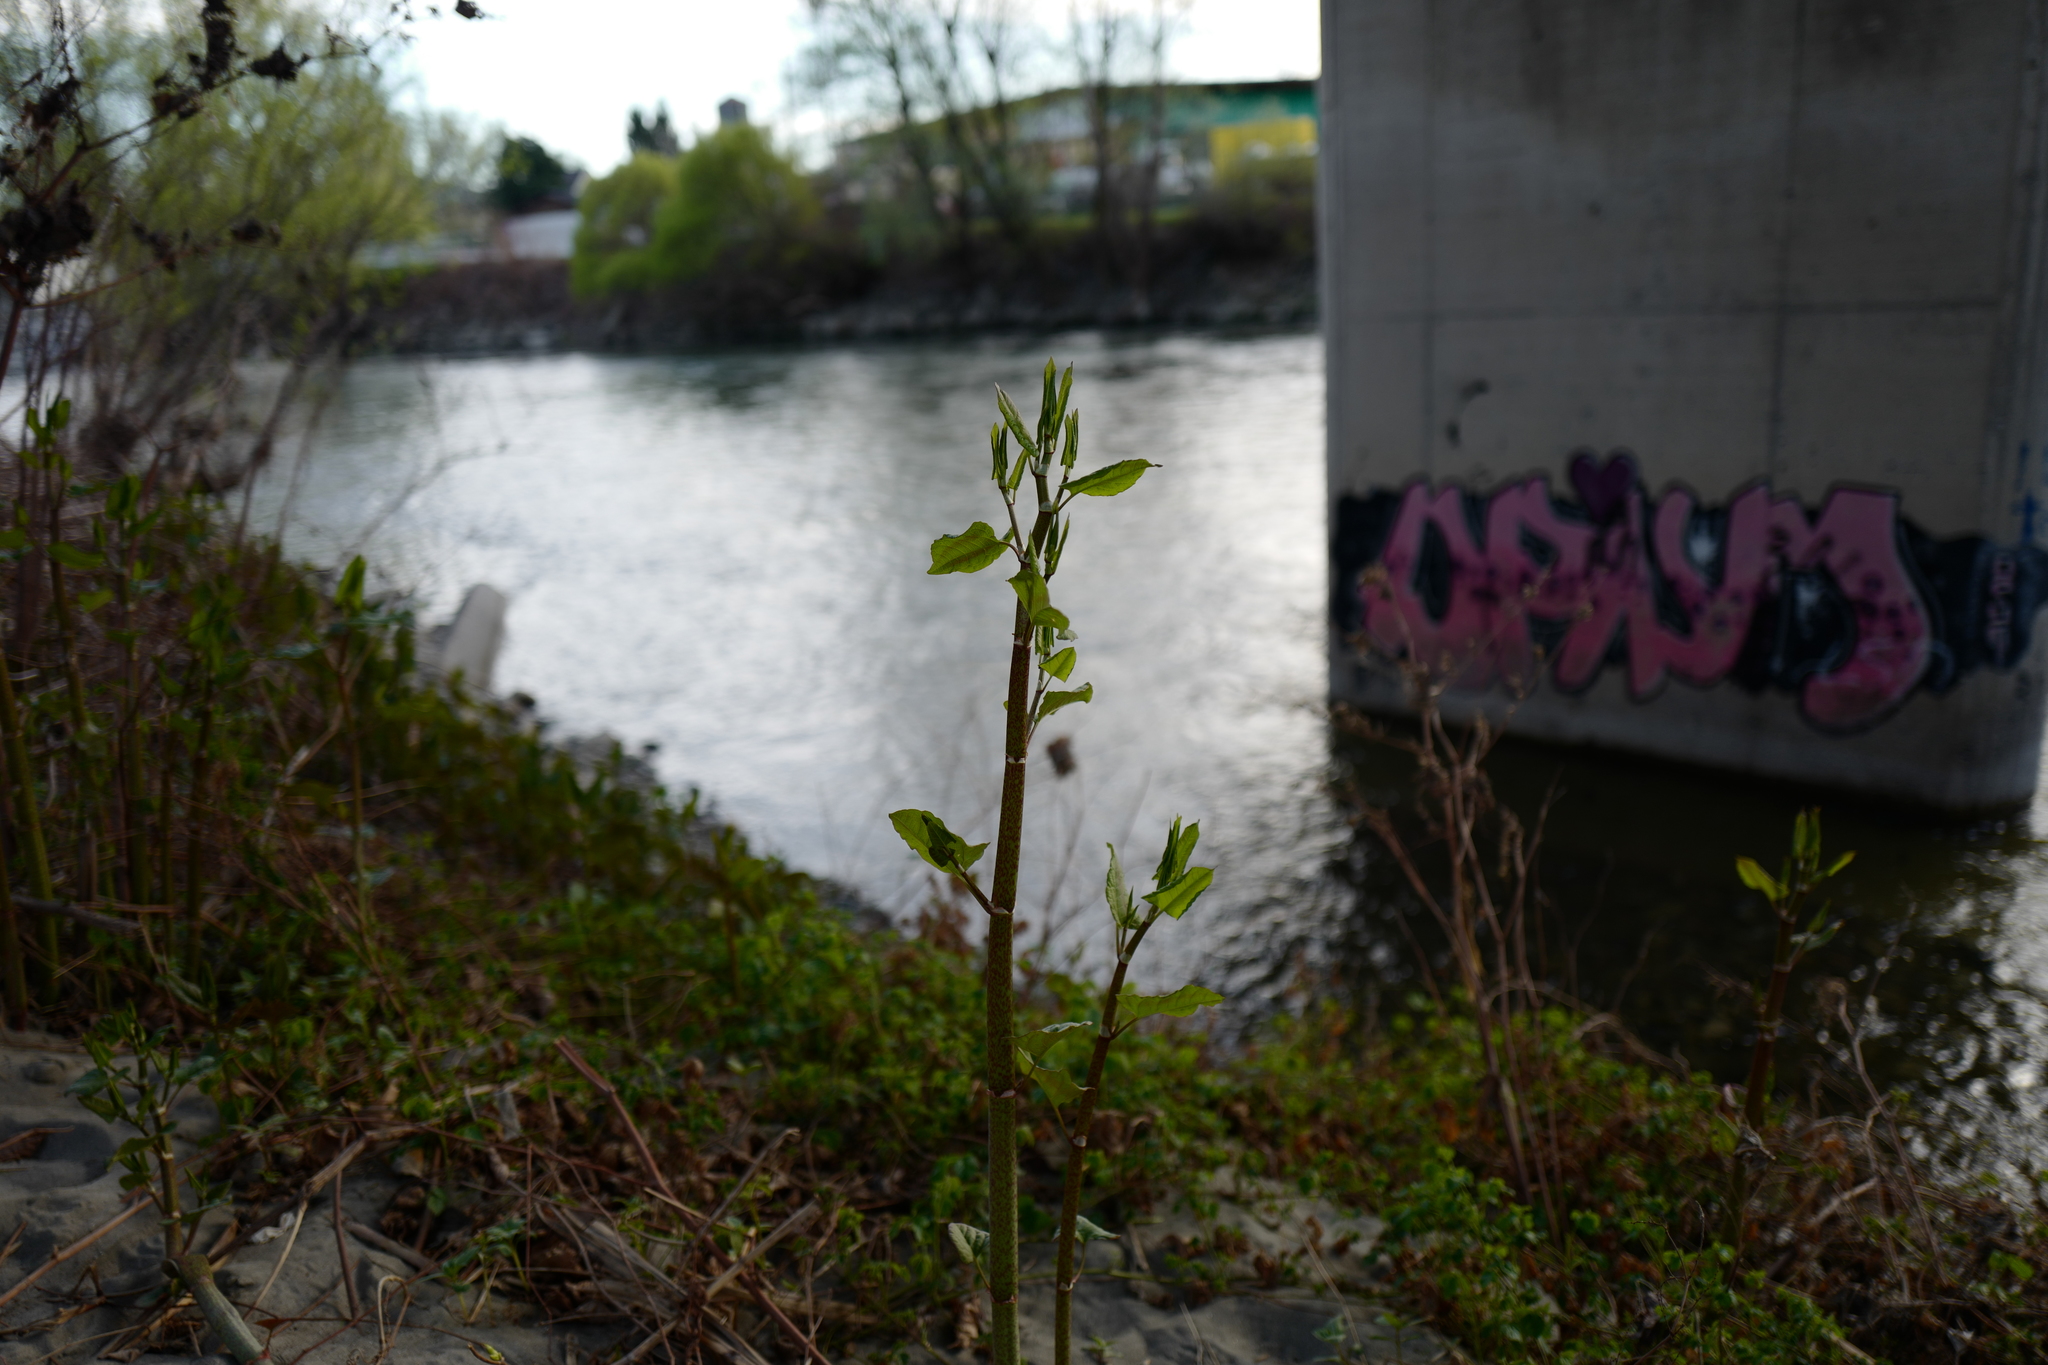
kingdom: Plantae
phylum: Tracheophyta
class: Magnoliopsida
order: Caryophyllales
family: Polygonaceae
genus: Reynoutria
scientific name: Reynoutria bohemica
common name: Bohemian knotweed
